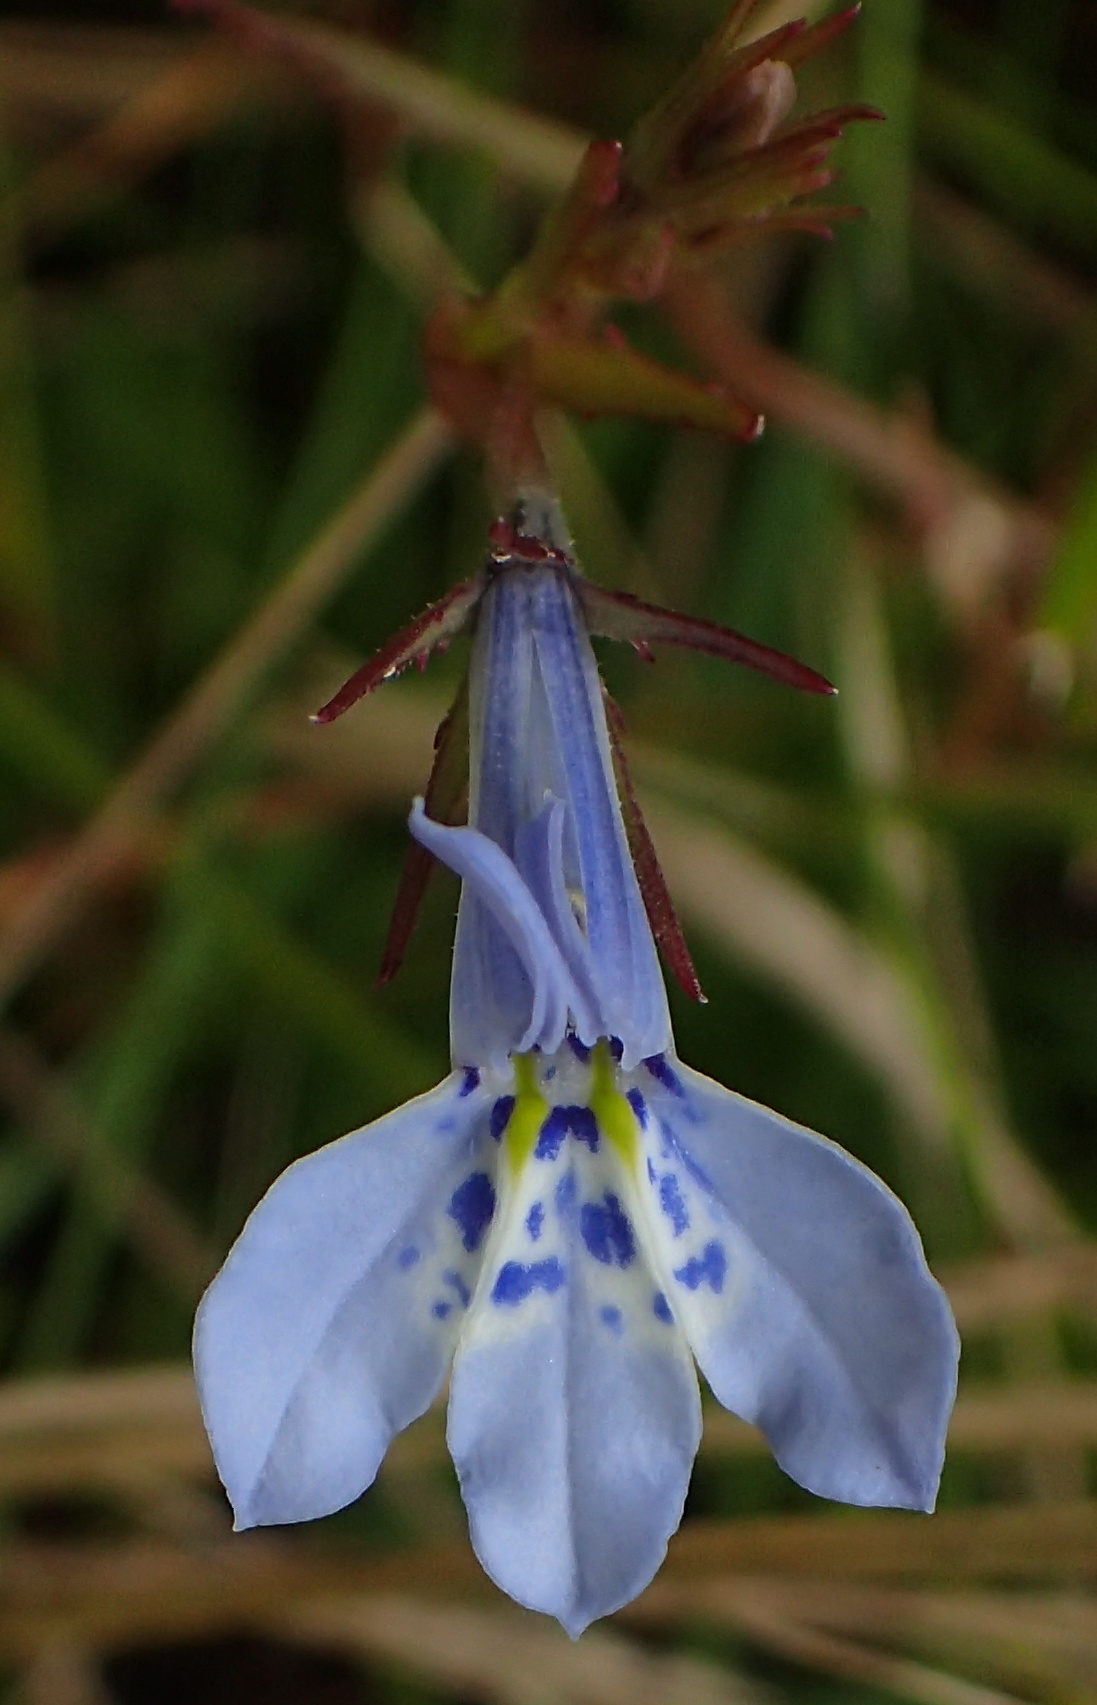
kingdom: Plantae
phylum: Tracheophyta
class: Magnoliopsida
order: Asterales
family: Campanulaceae
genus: Lobelia
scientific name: Lobelia flaccida
